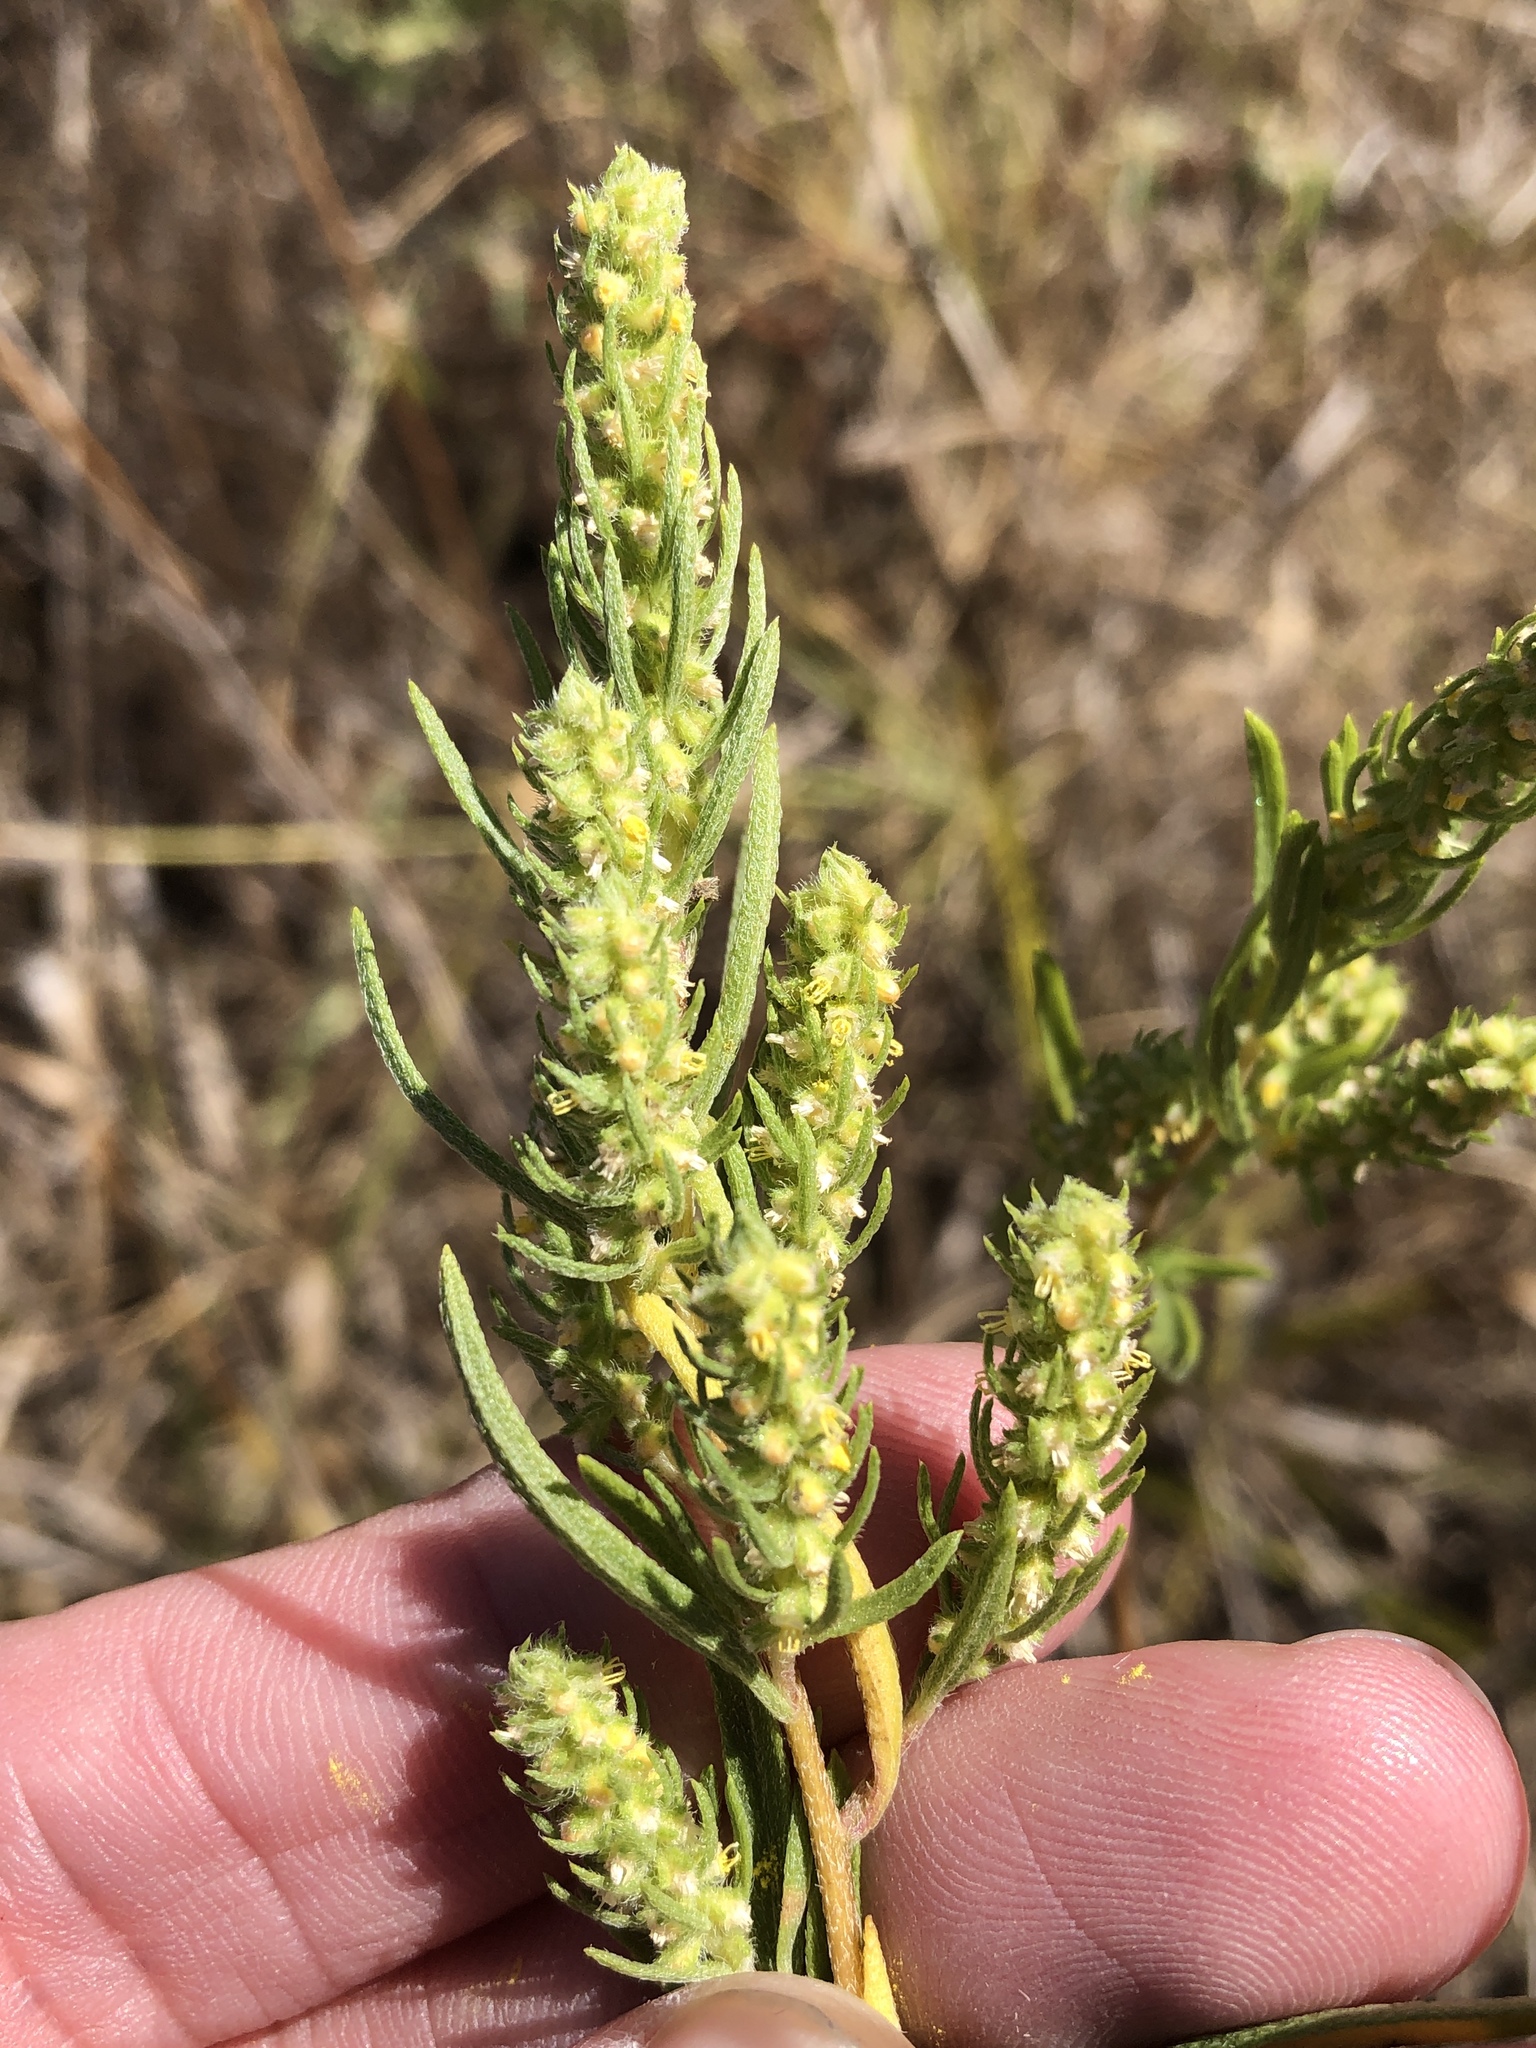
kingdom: Plantae
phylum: Tracheophyta
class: Magnoliopsida
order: Asterales
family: Asteraceae
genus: Iva
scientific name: Iva asperifolia
